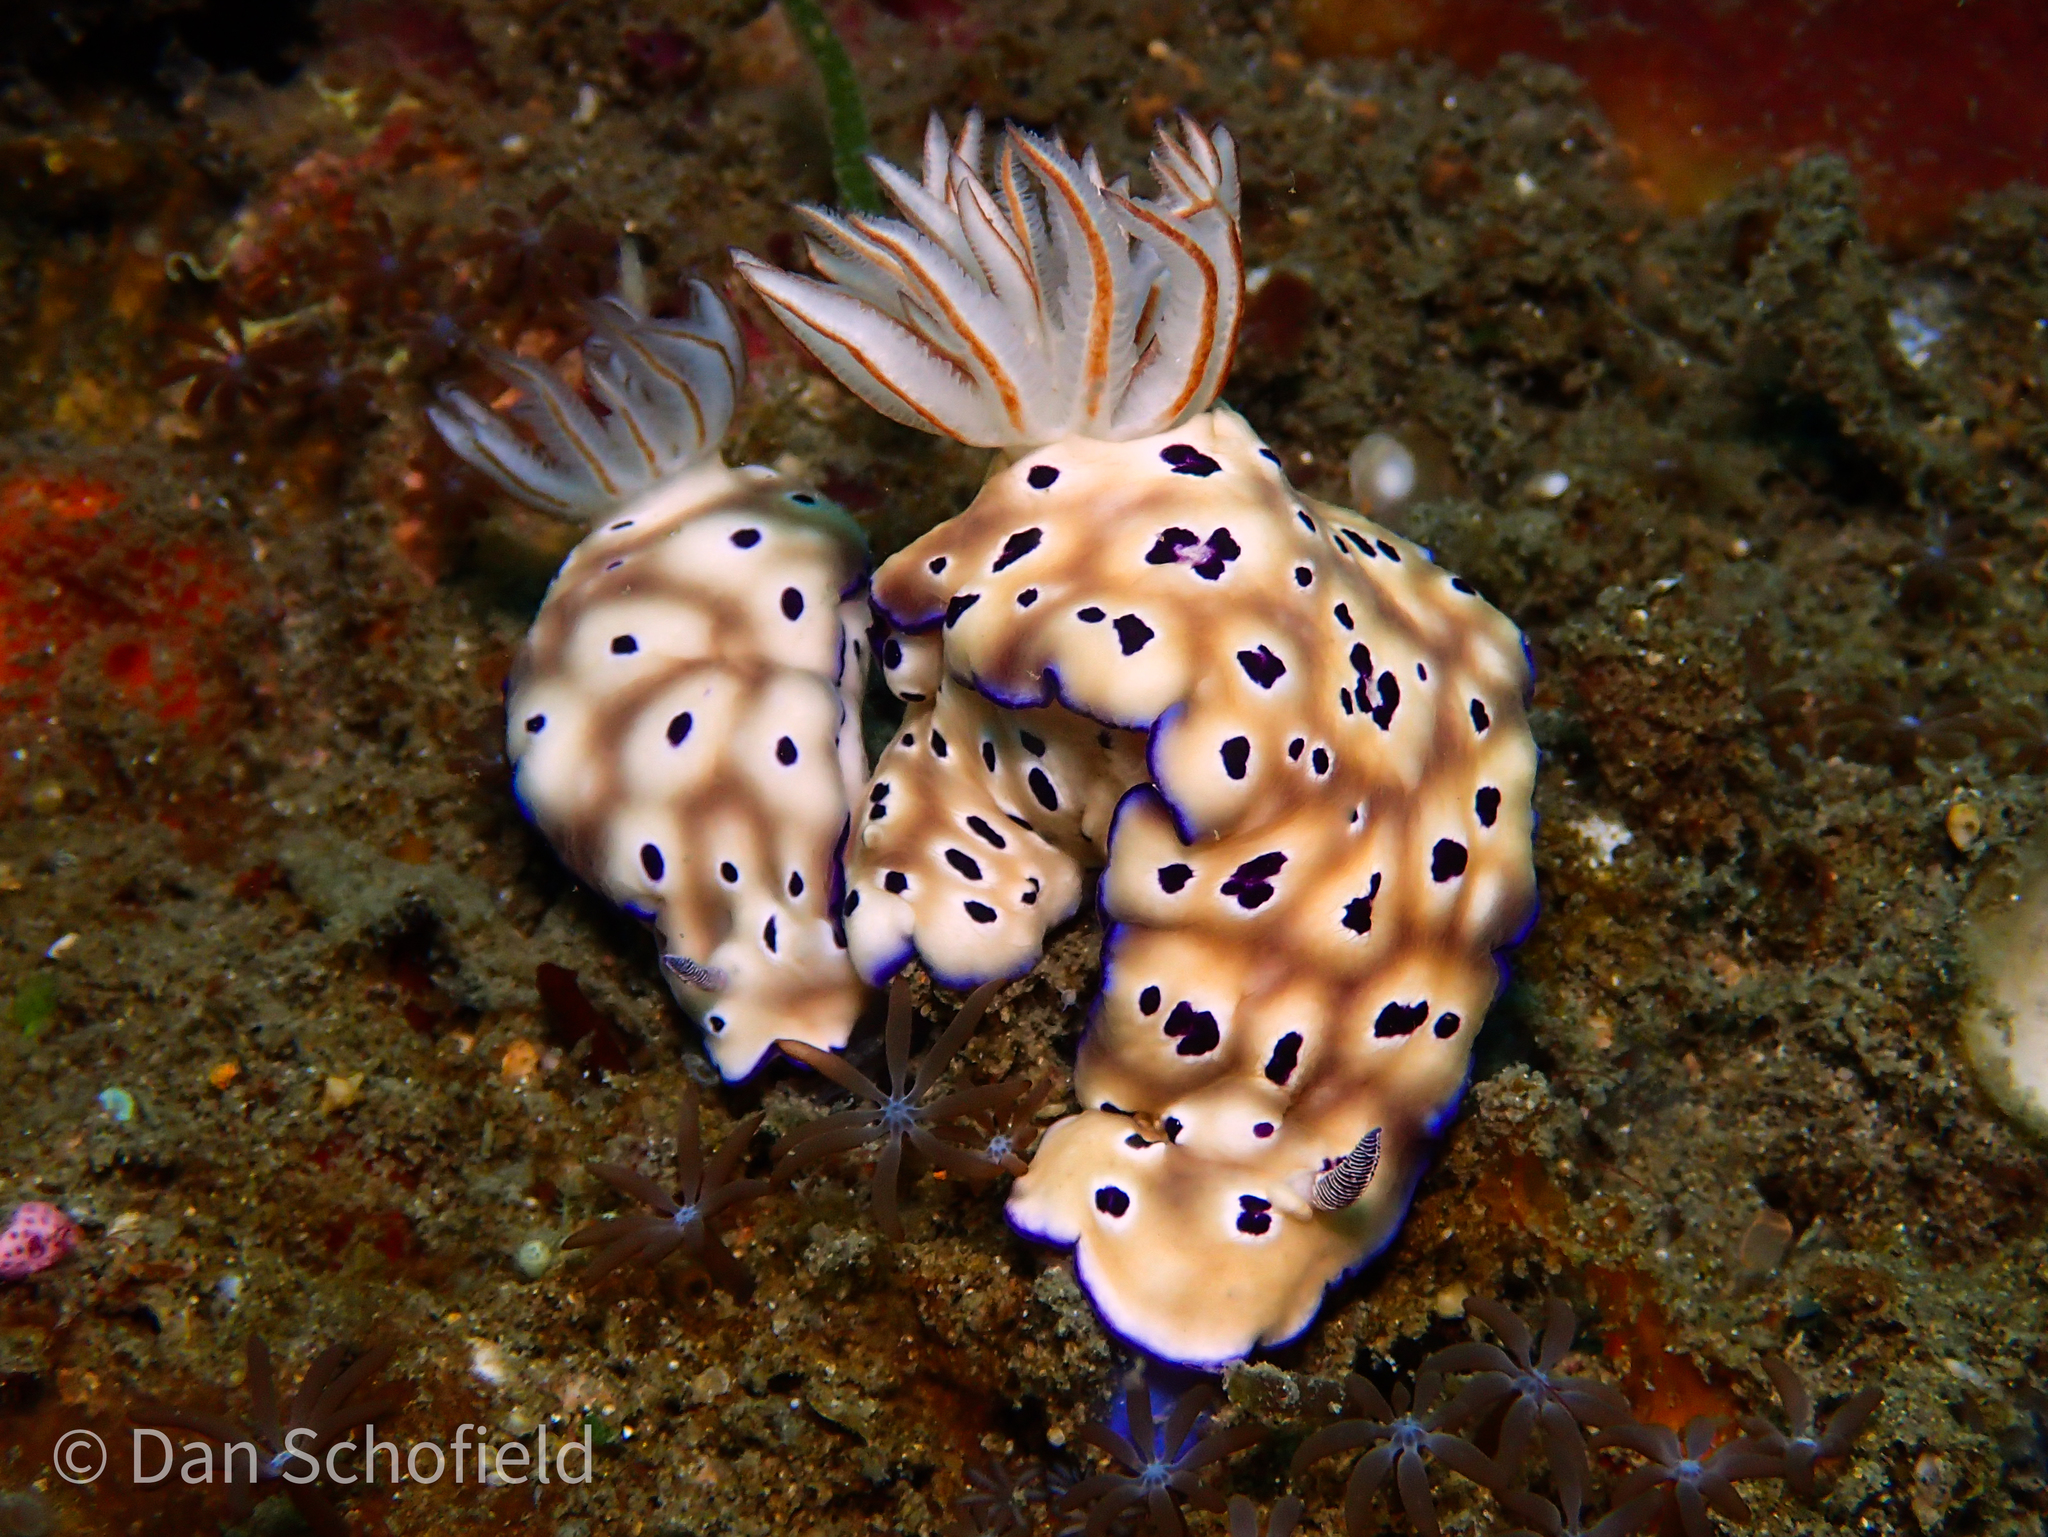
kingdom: Animalia
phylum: Mollusca
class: Gastropoda
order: Nudibranchia
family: Chromodorididae
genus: Hypselodoris
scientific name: Hypselodoris tryoni
